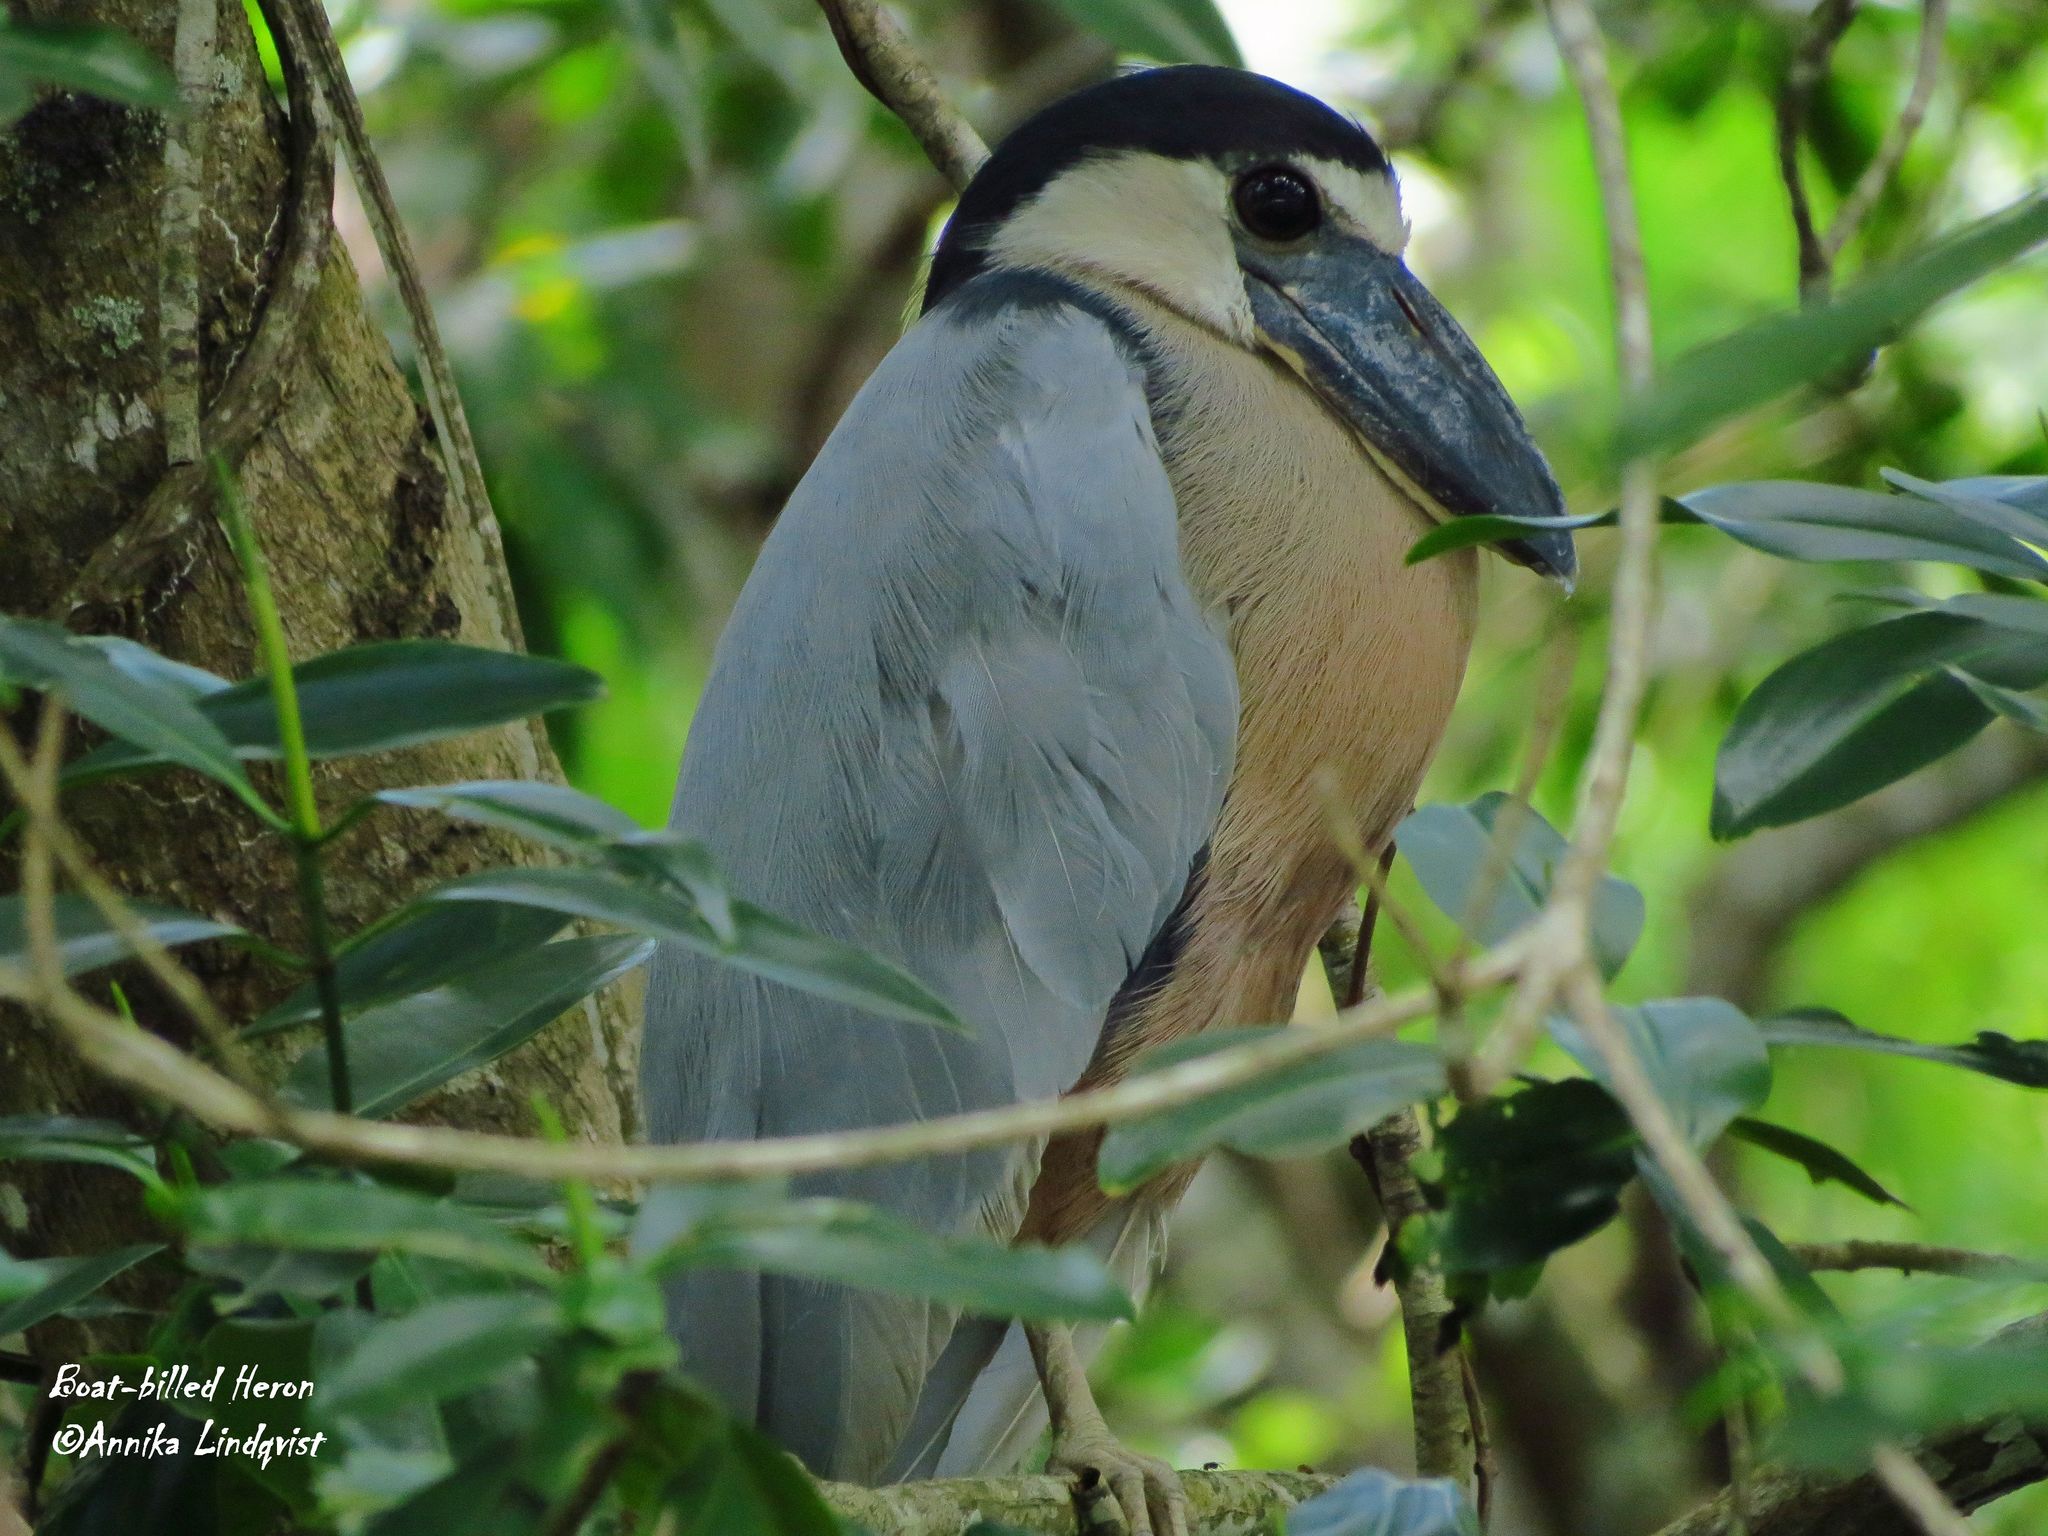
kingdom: Animalia
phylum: Chordata
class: Aves
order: Pelecaniformes
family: Ardeidae
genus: Cochlearius
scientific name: Cochlearius cochlearius
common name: Boat-billed heron
